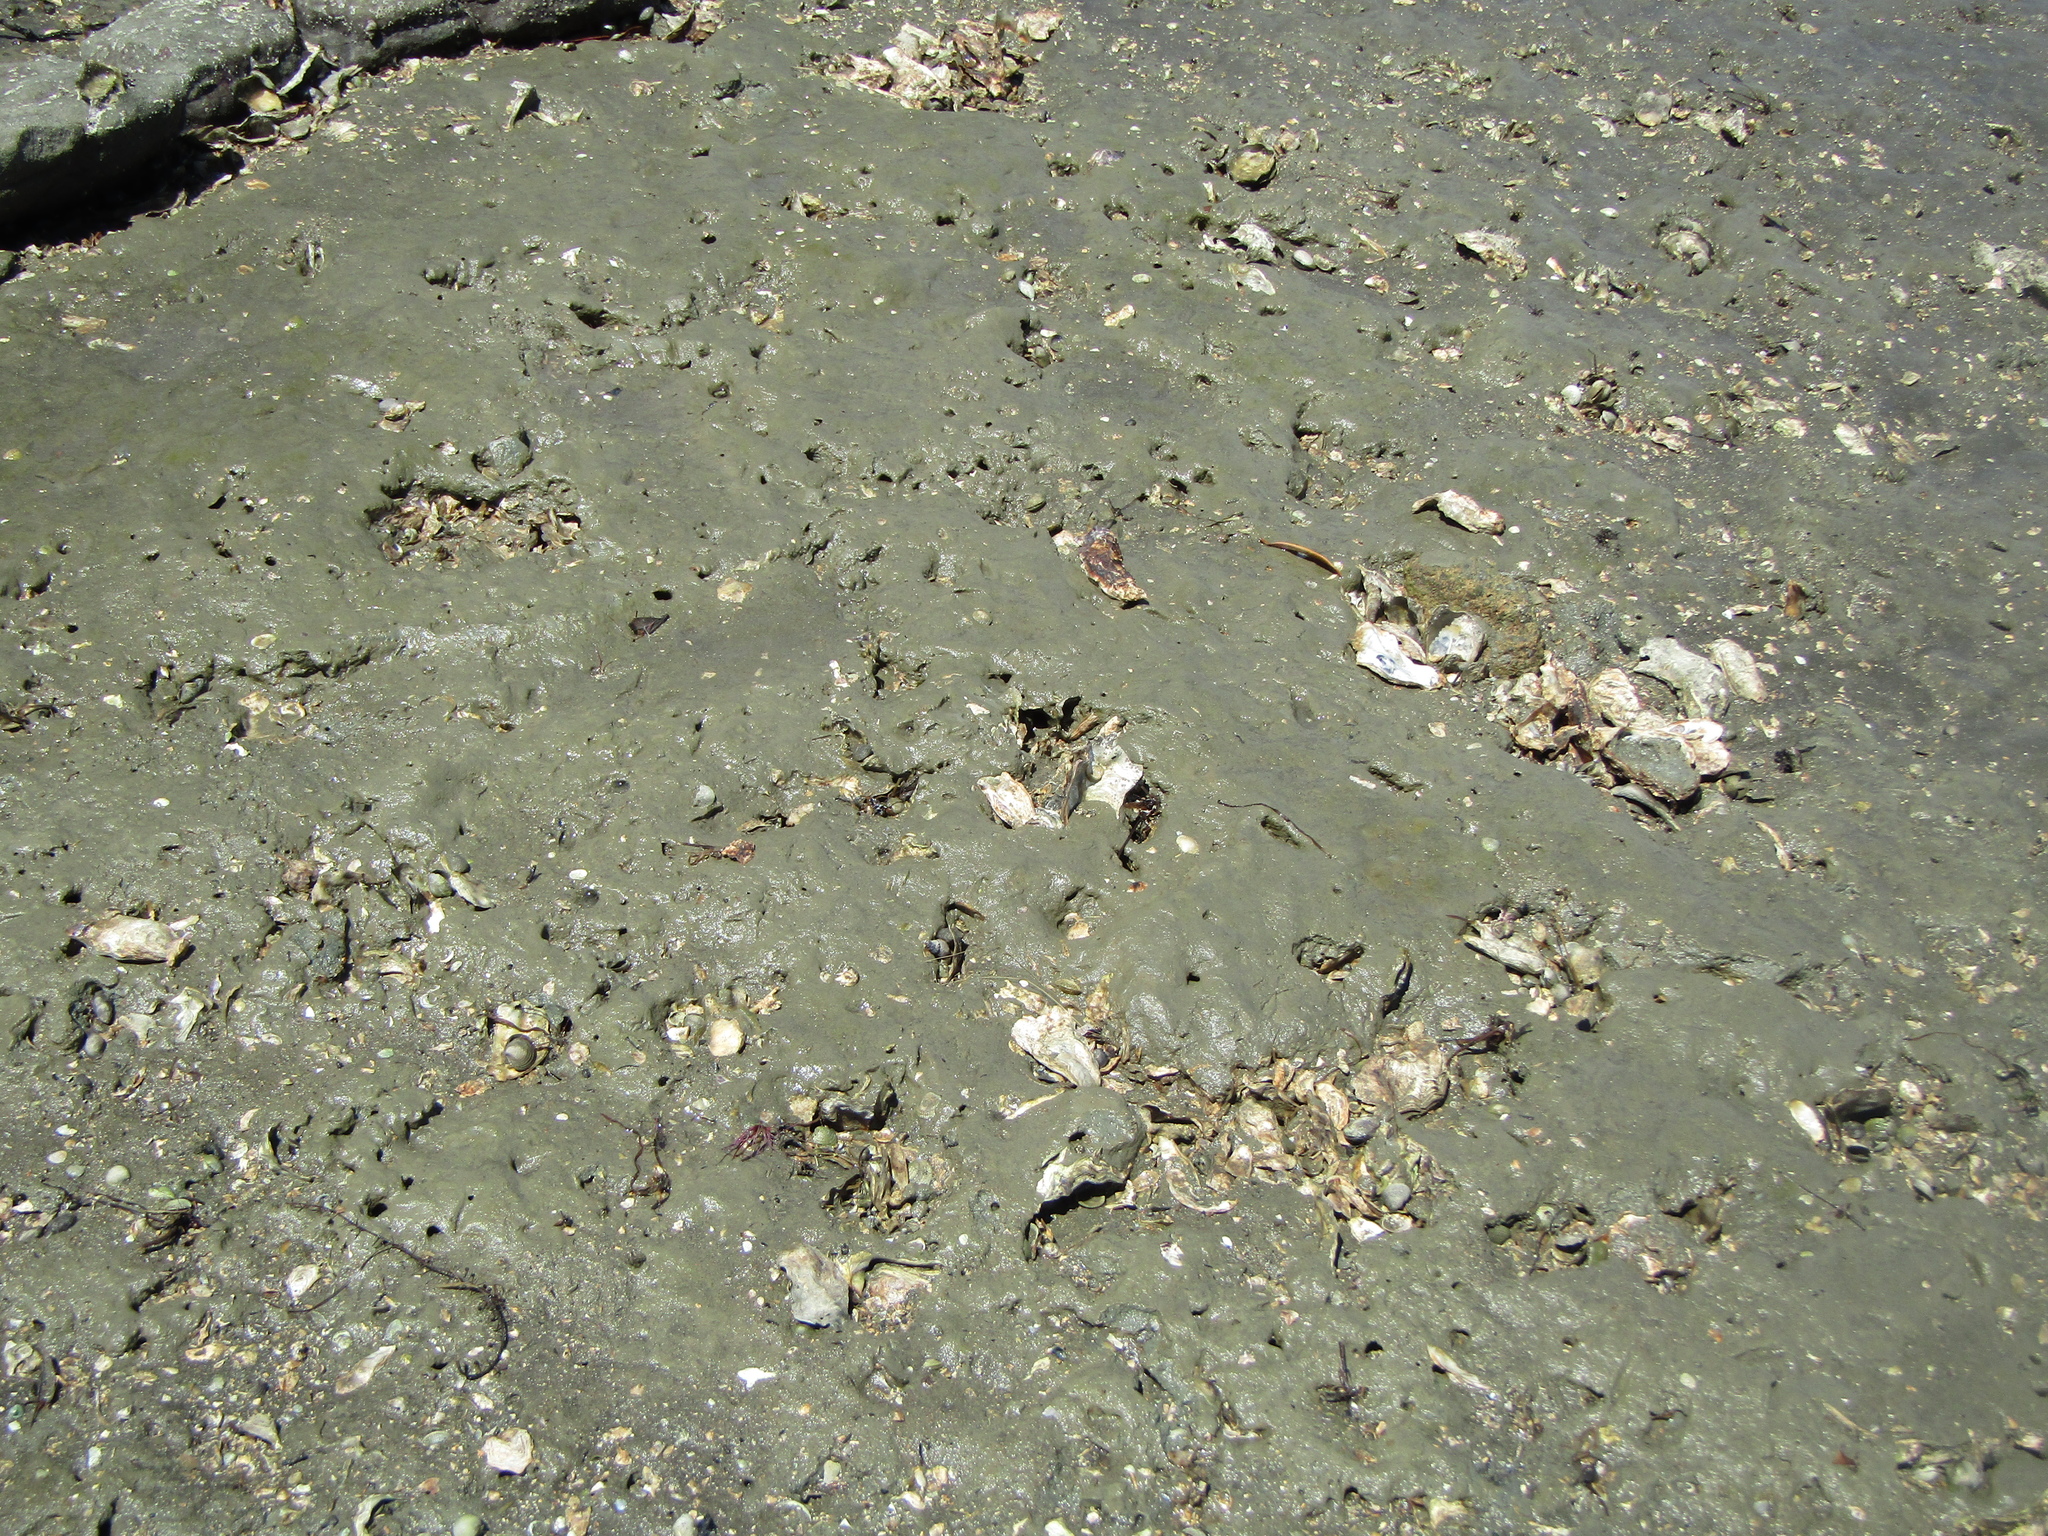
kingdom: Animalia
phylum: Mollusca
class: Bivalvia
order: Ostreida
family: Ostreidae
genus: Magallana
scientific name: Magallana gigas
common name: Pacific oyster
